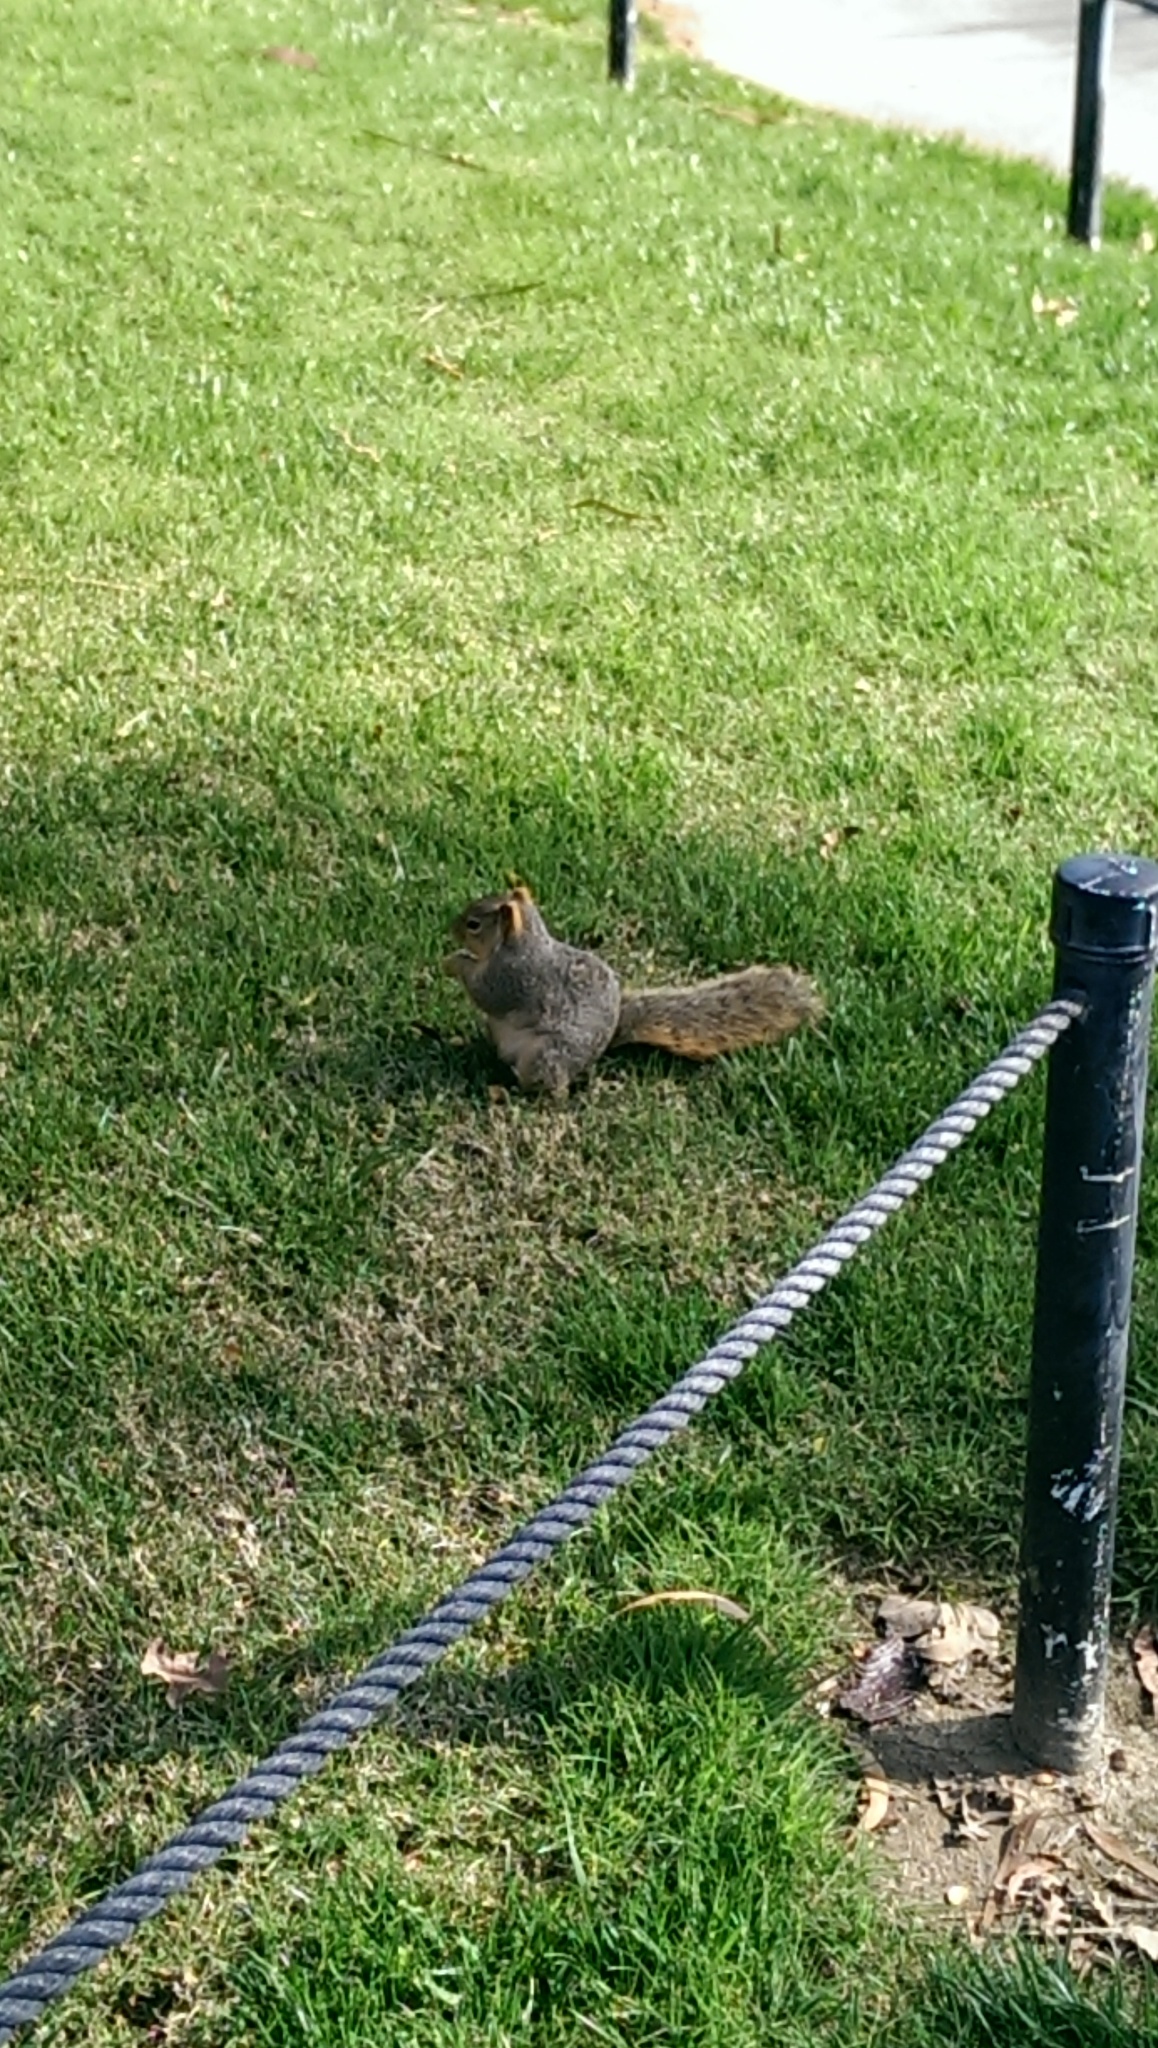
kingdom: Animalia
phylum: Chordata
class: Mammalia
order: Rodentia
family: Sciuridae
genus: Sciurus
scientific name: Sciurus niger
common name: Fox squirrel
